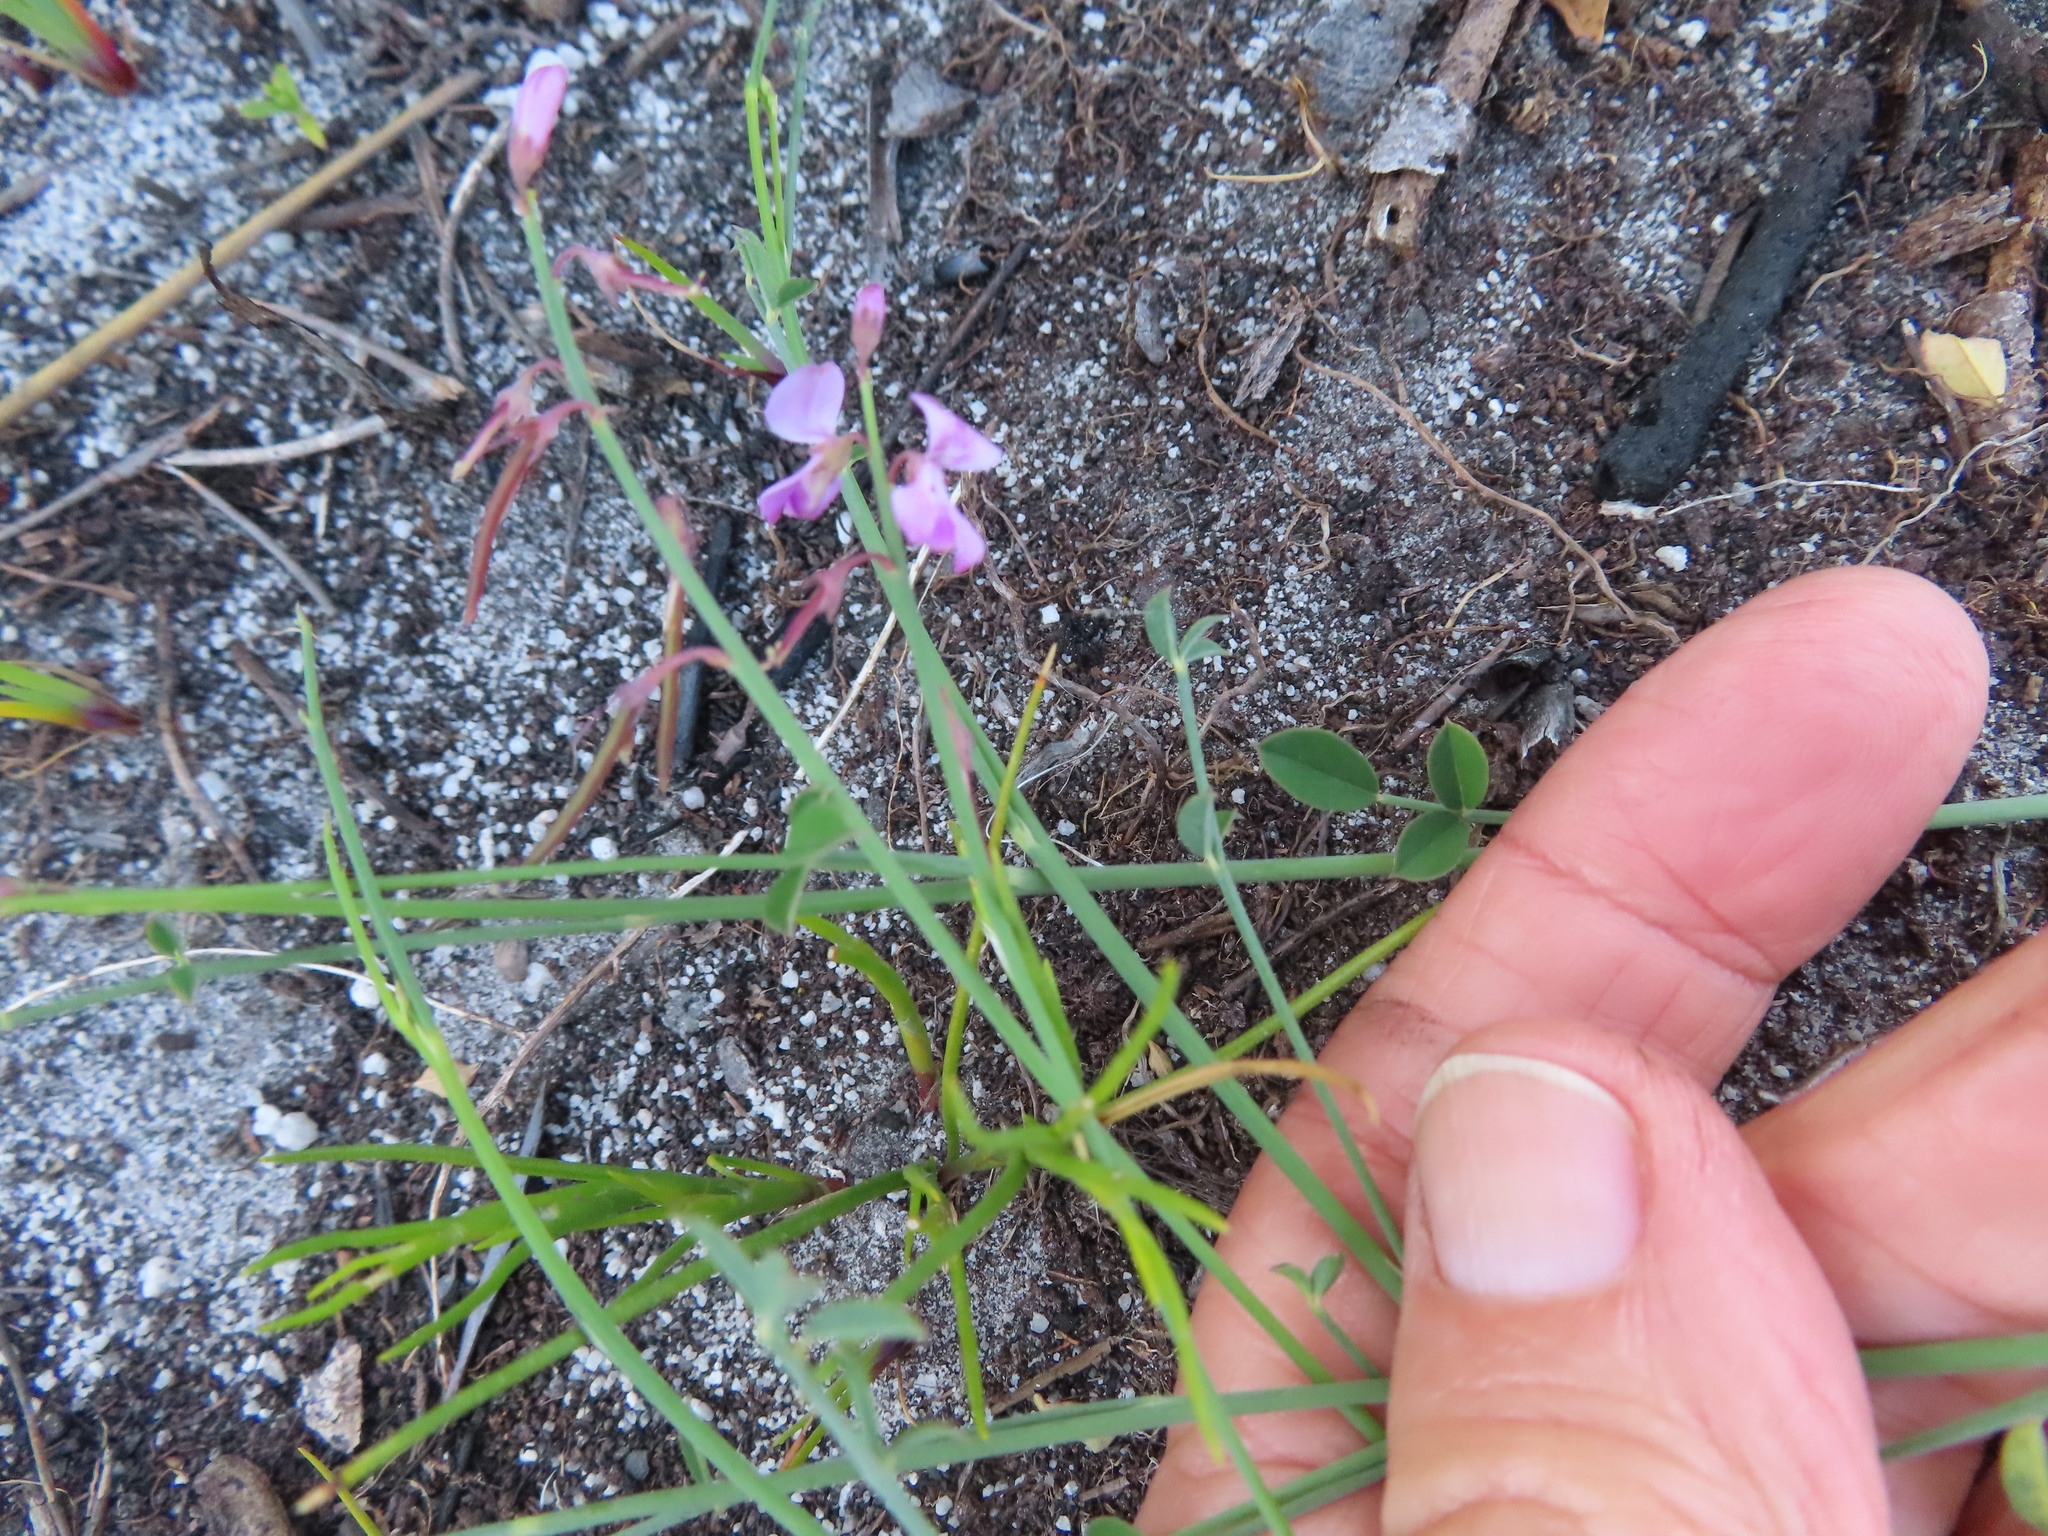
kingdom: Plantae
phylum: Tracheophyta
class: Magnoliopsida
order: Fabales
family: Fabaceae
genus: Indigofera
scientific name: Indigofera ionii
